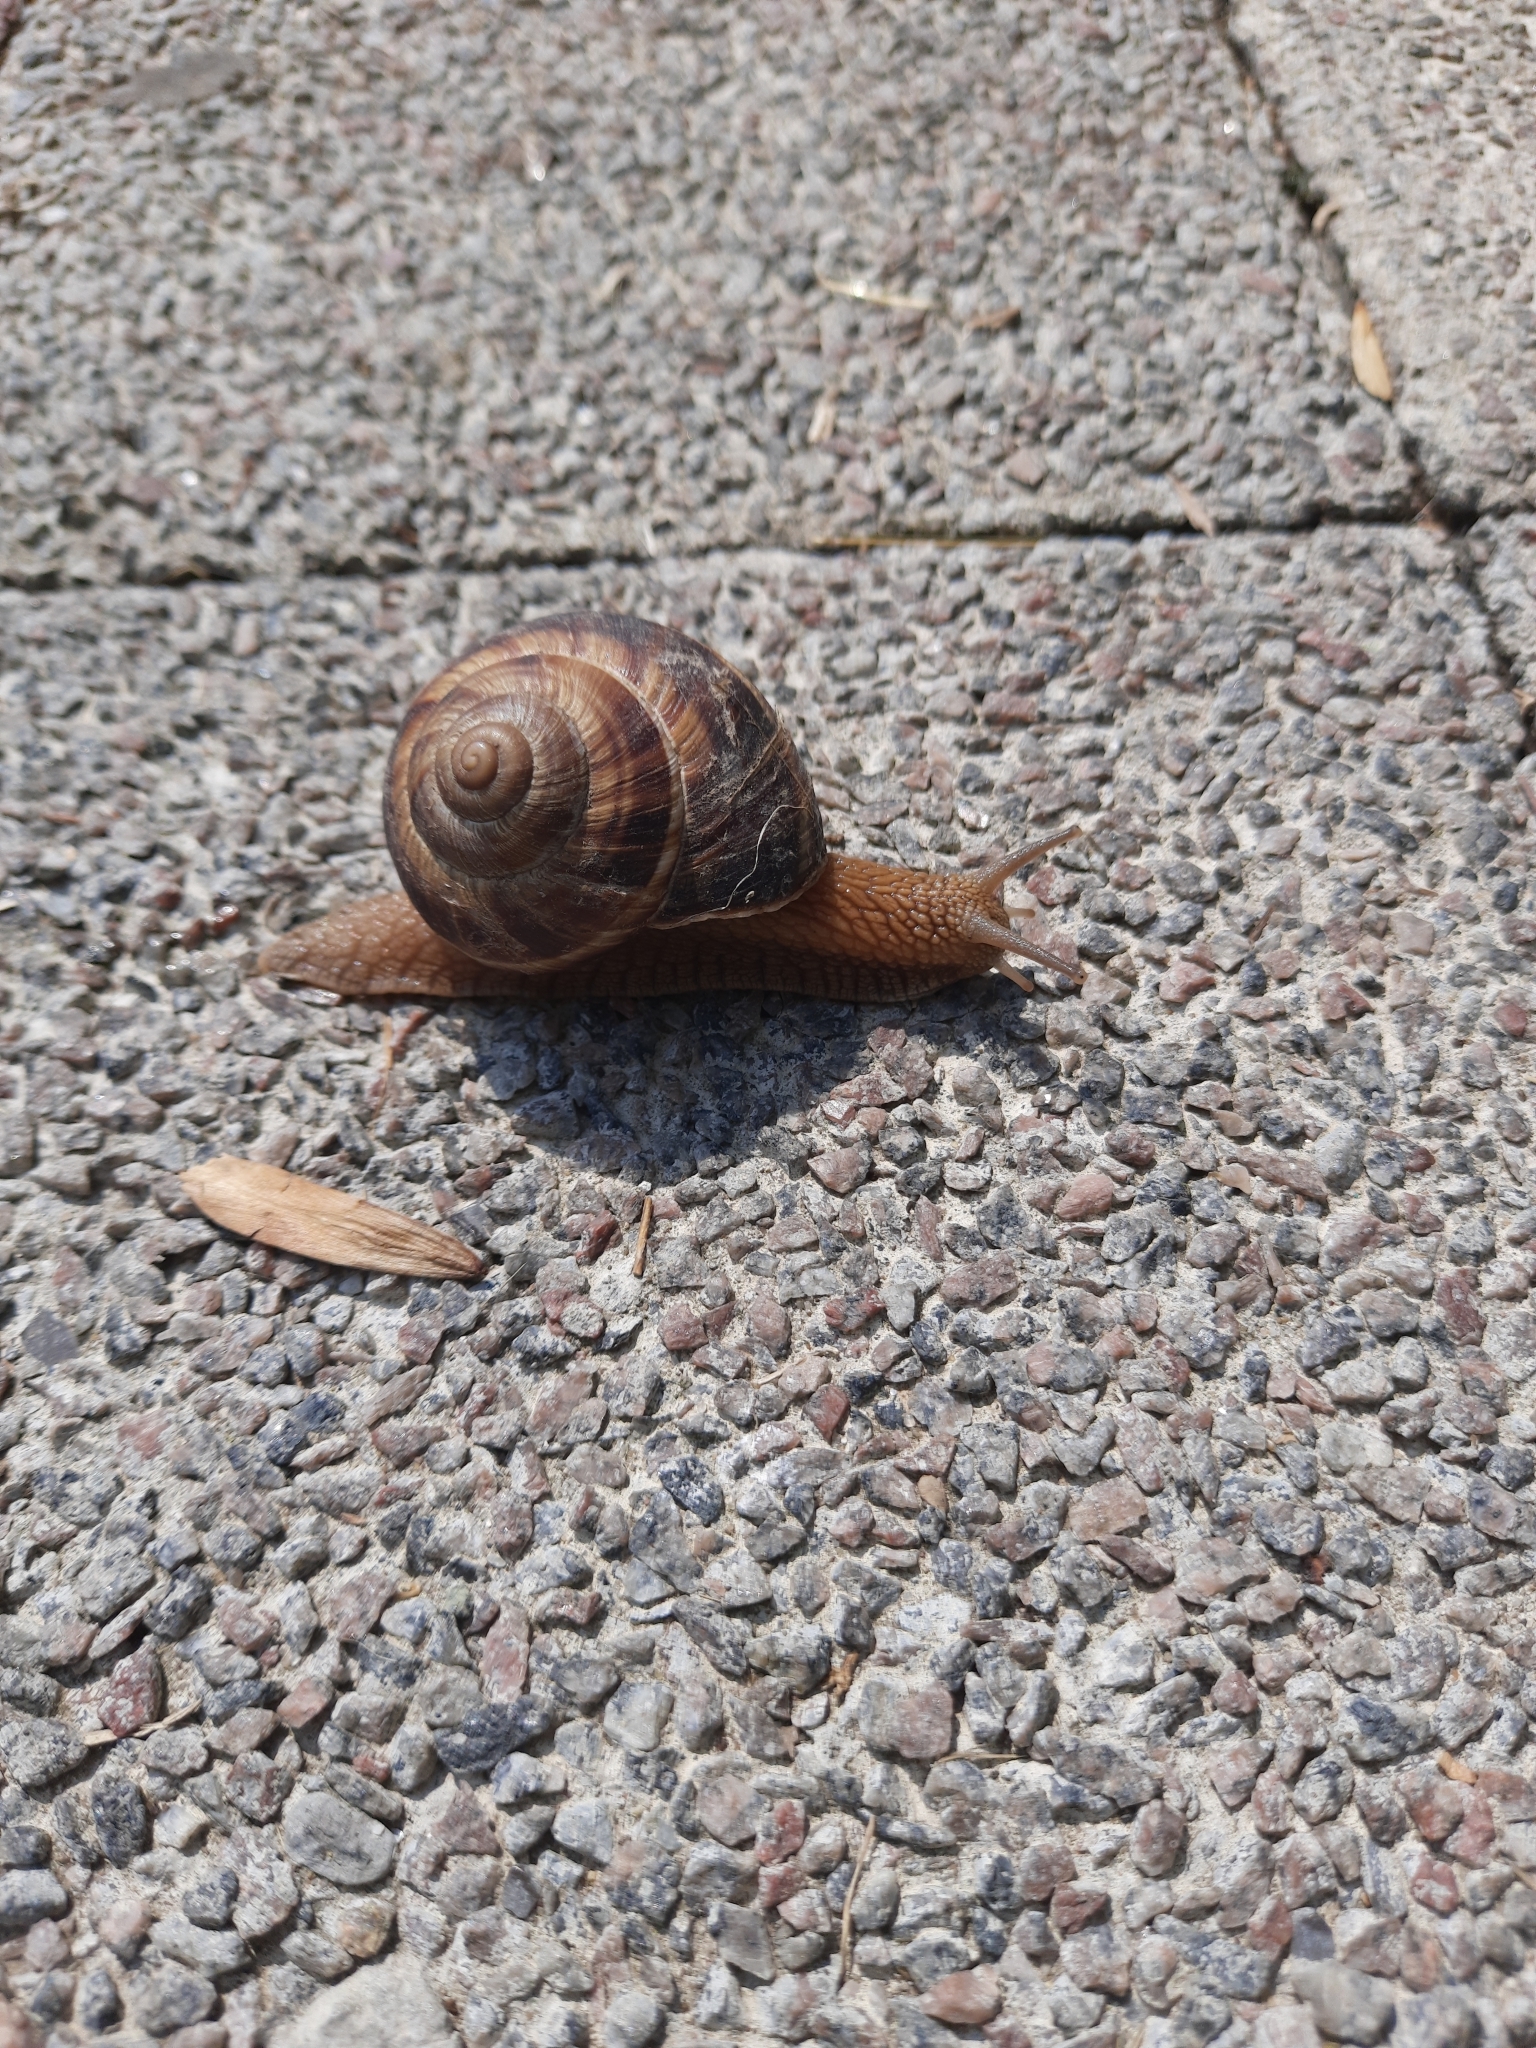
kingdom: Animalia
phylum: Mollusca
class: Gastropoda
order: Stylommatophora
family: Helicidae
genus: Helix
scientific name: Helix lucorum
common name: Turkish snail
